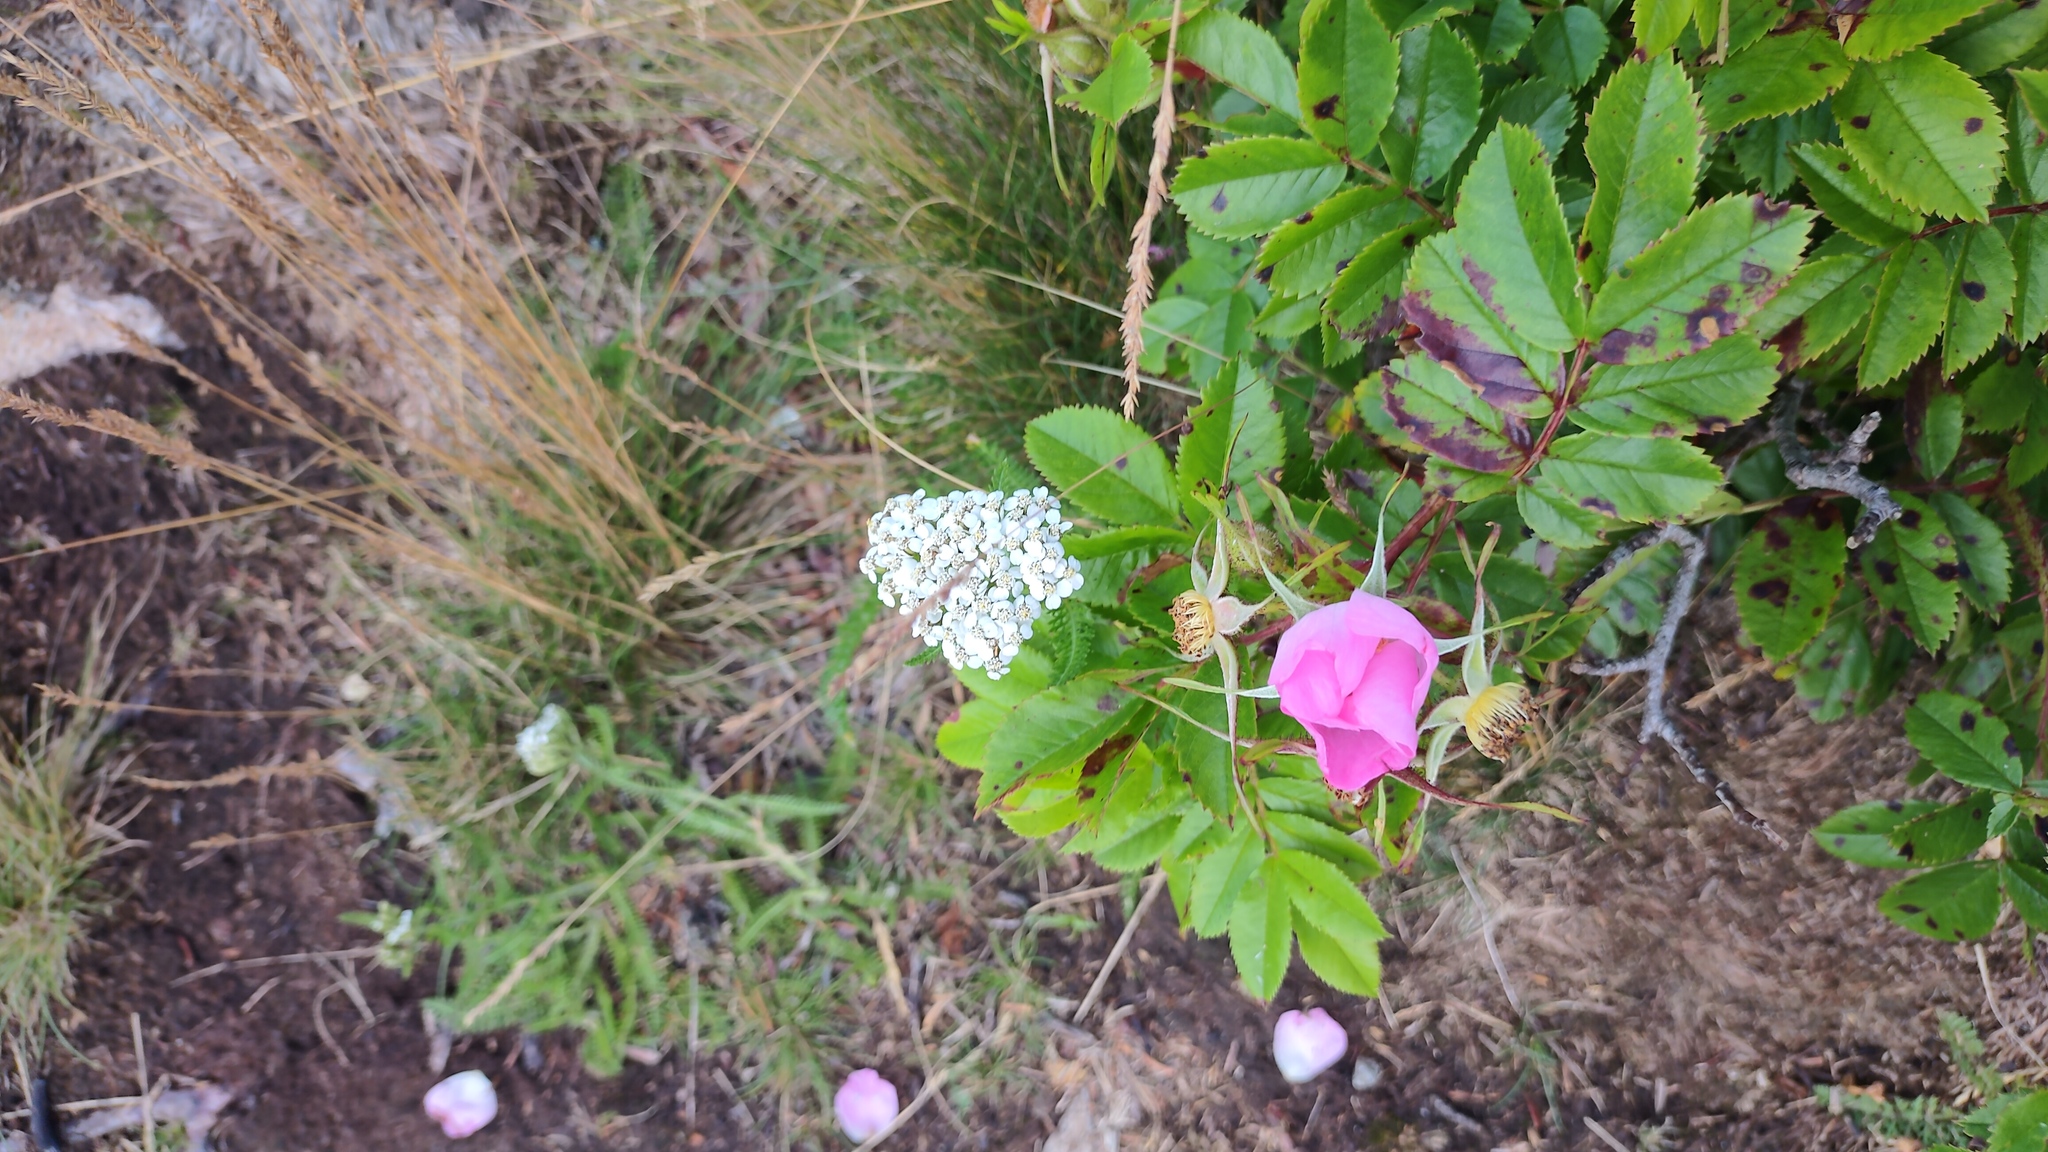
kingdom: Plantae
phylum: Tracheophyta
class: Magnoliopsida
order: Asterales
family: Asteraceae
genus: Achillea
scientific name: Achillea millefolium
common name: Yarrow
